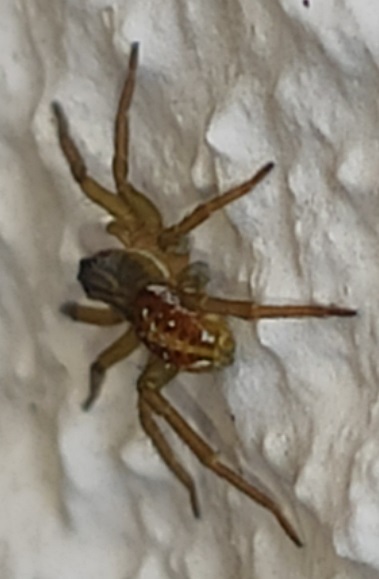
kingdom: Animalia
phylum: Arthropoda
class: Arachnida
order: Araneae
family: Lycosidae
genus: Pirata
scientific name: Pirata piraticus
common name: Pirate otter spider
